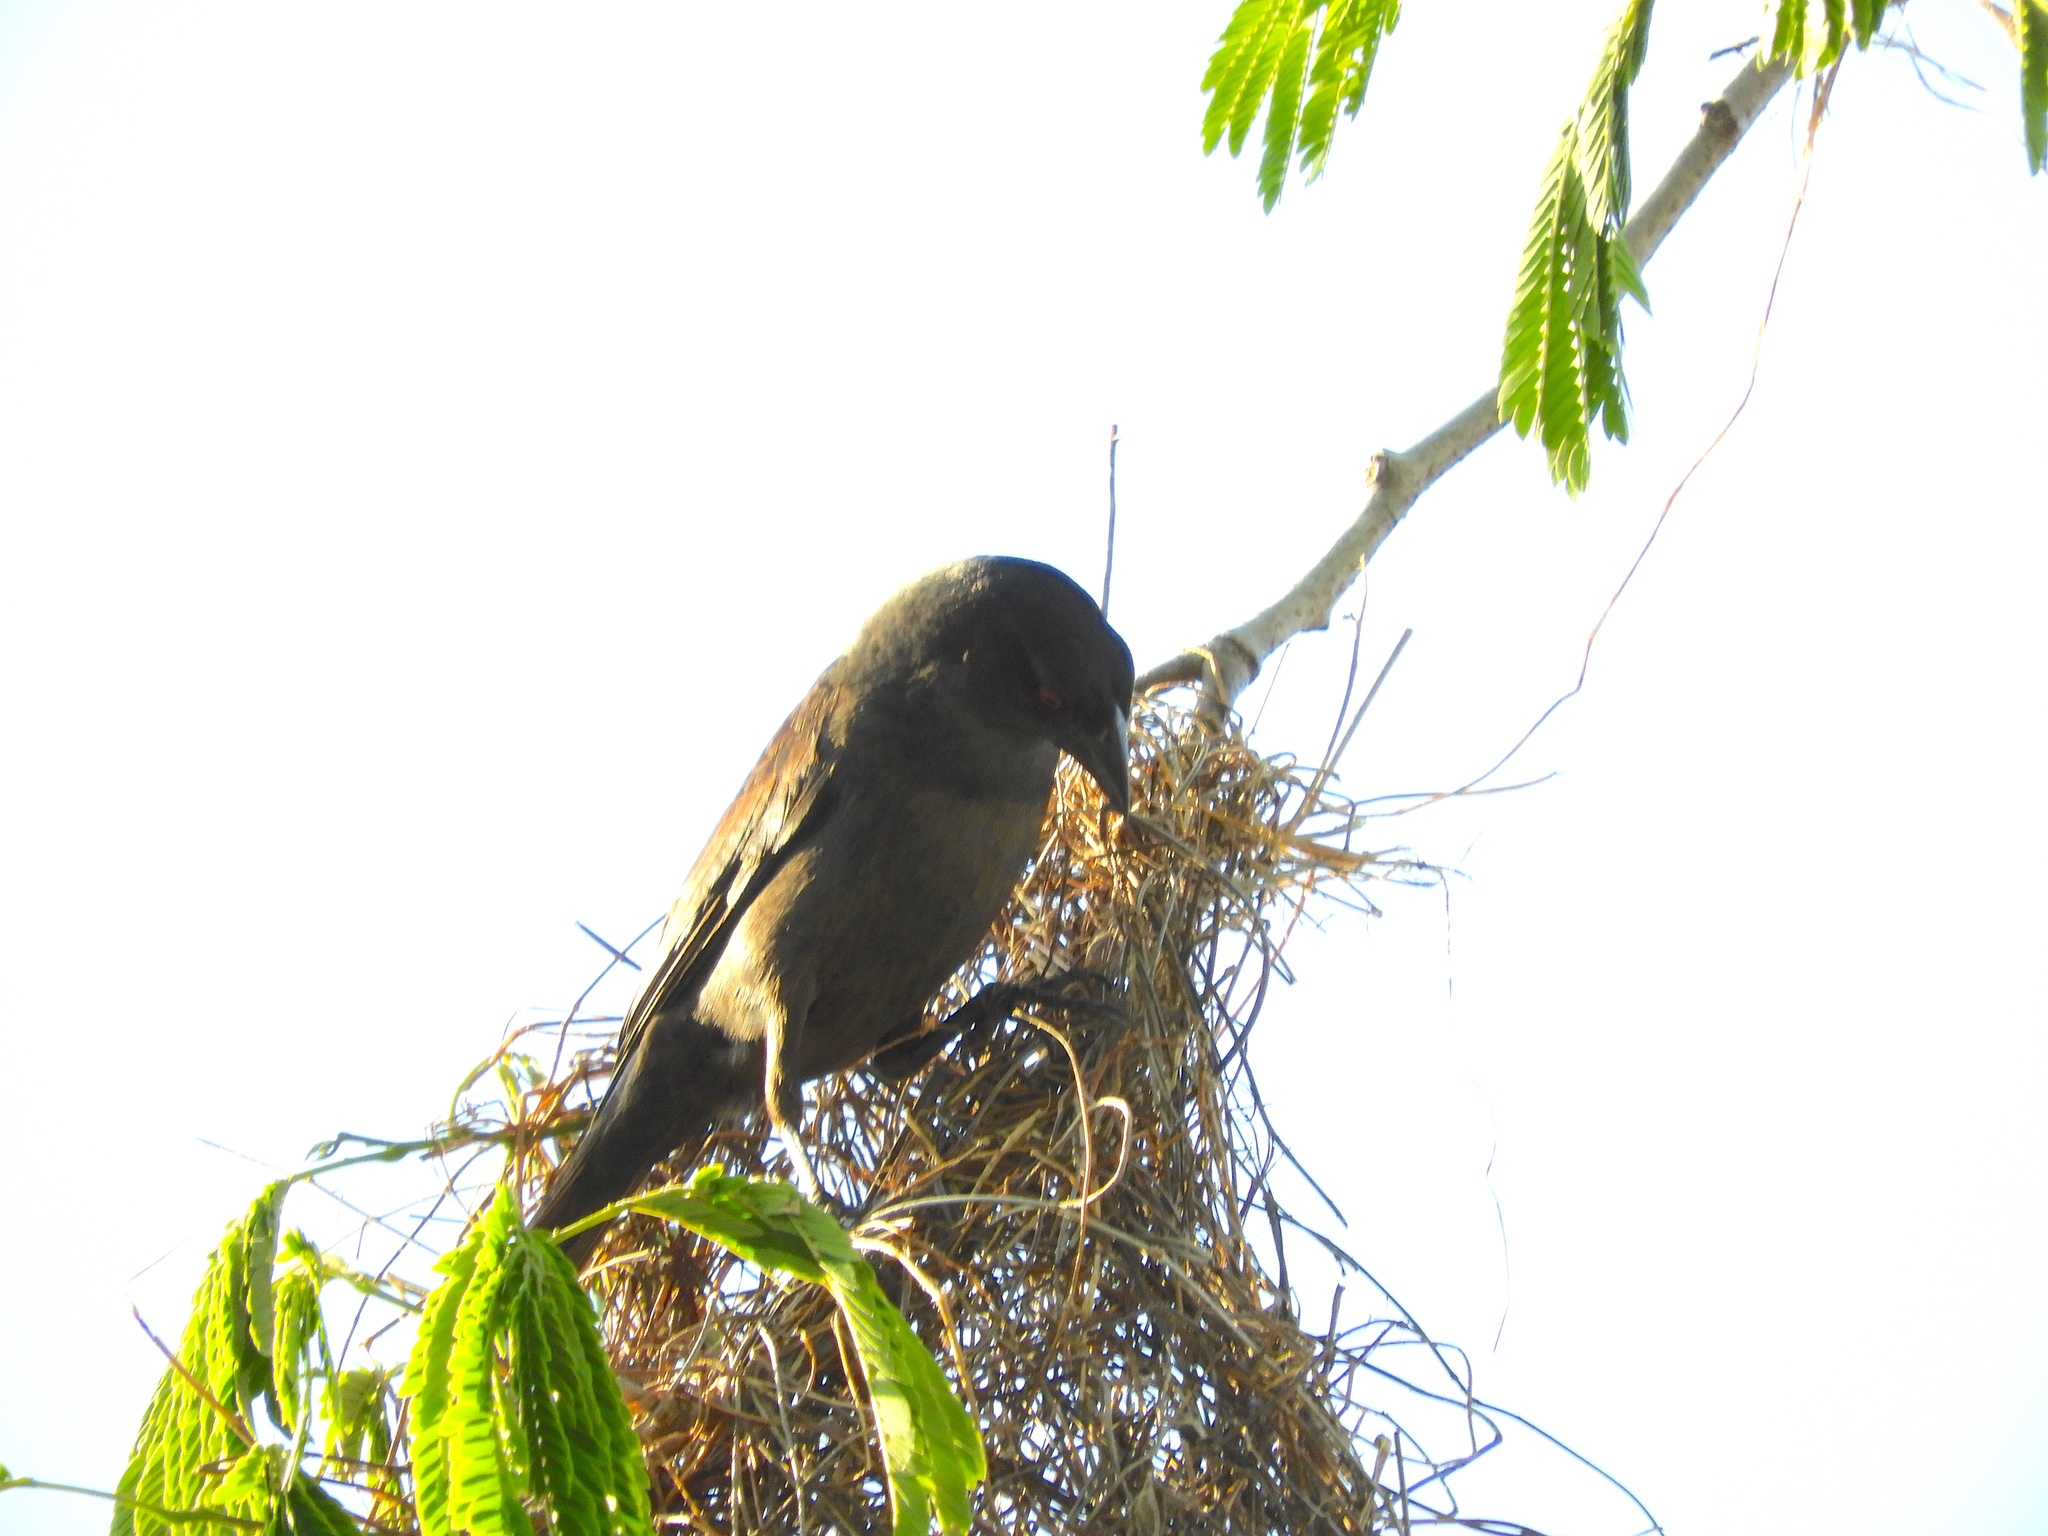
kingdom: Animalia
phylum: Chordata
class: Aves
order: Passeriformes
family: Icteridae
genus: Molothrus
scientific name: Molothrus aeneus
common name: Bronzed cowbird
